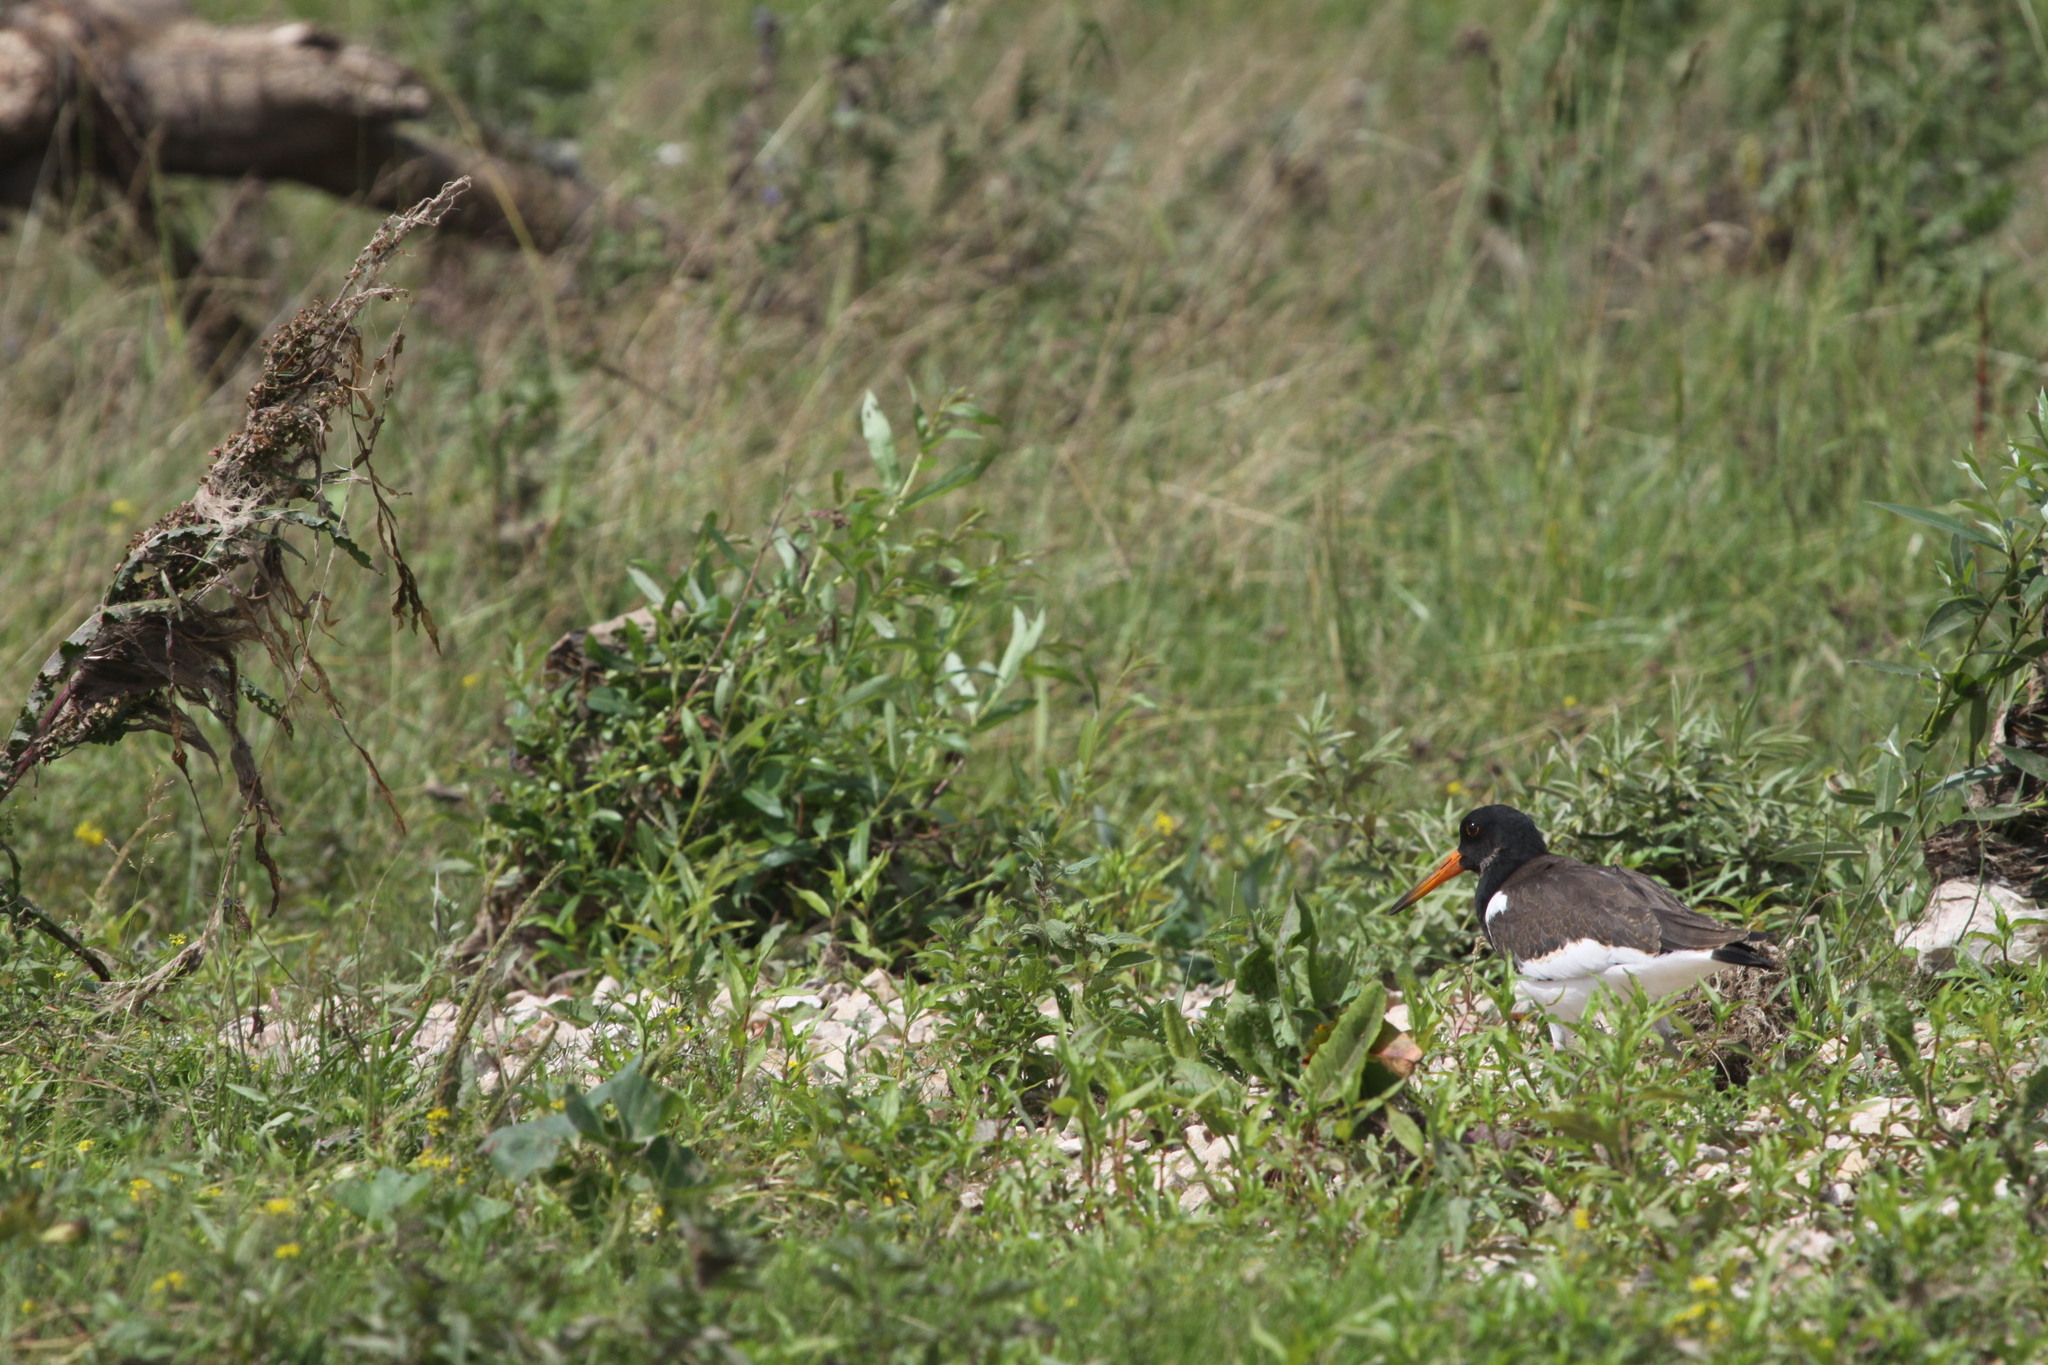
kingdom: Animalia
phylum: Chordata
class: Aves
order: Charadriiformes
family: Haematopodidae
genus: Haematopus
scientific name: Haematopus ostralegus
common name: Eurasian oystercatcher
